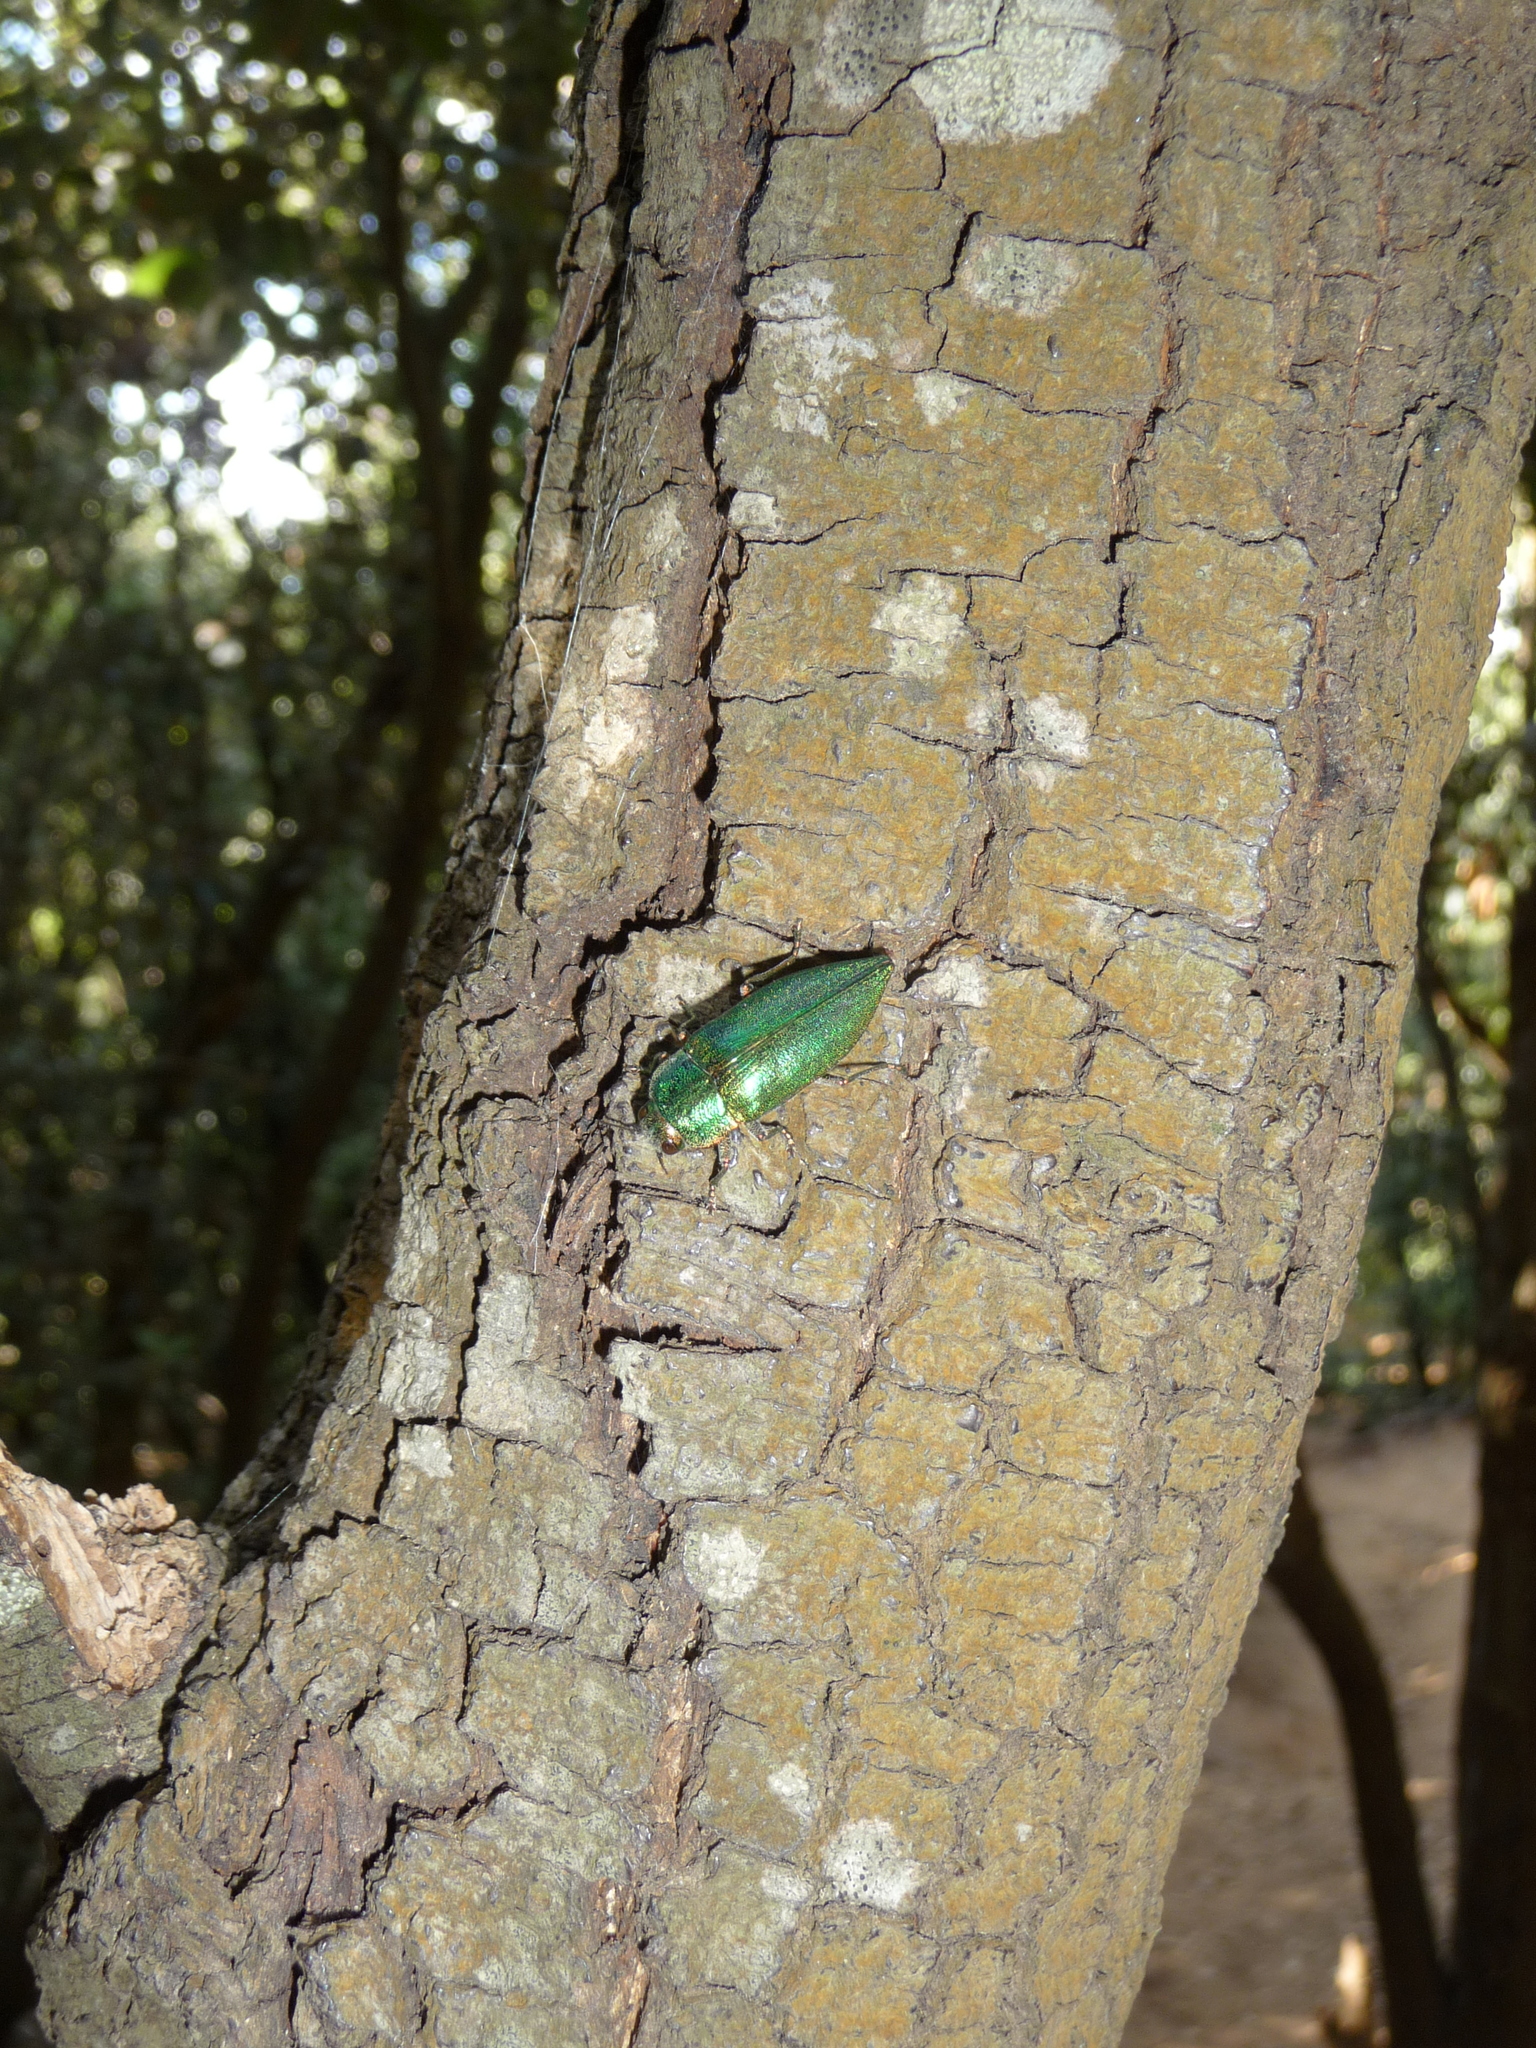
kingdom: Animalia
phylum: Arthropoda
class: Insecta
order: Coleoptera
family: Buprestidae
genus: Latipalpis
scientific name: Latipalpis plana
